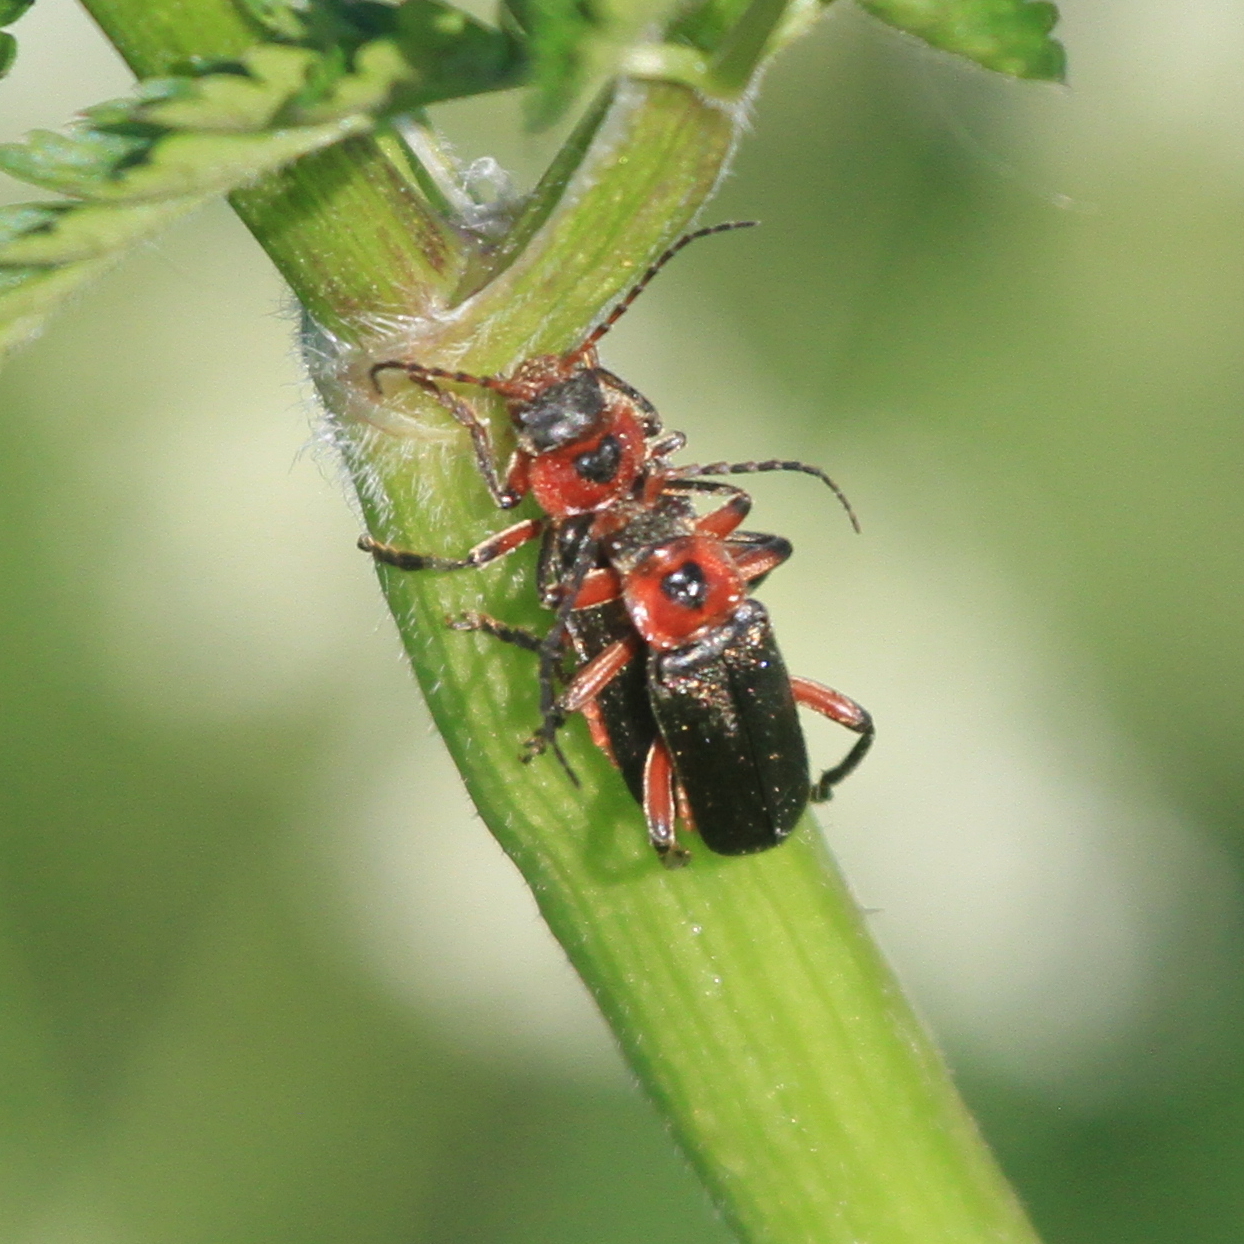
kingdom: Animalia
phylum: Arthropoda
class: Insecta
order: Coleoptera
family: Cantharidae
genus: Cantharis
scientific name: Cantharis rustica
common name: Soldier beetle
